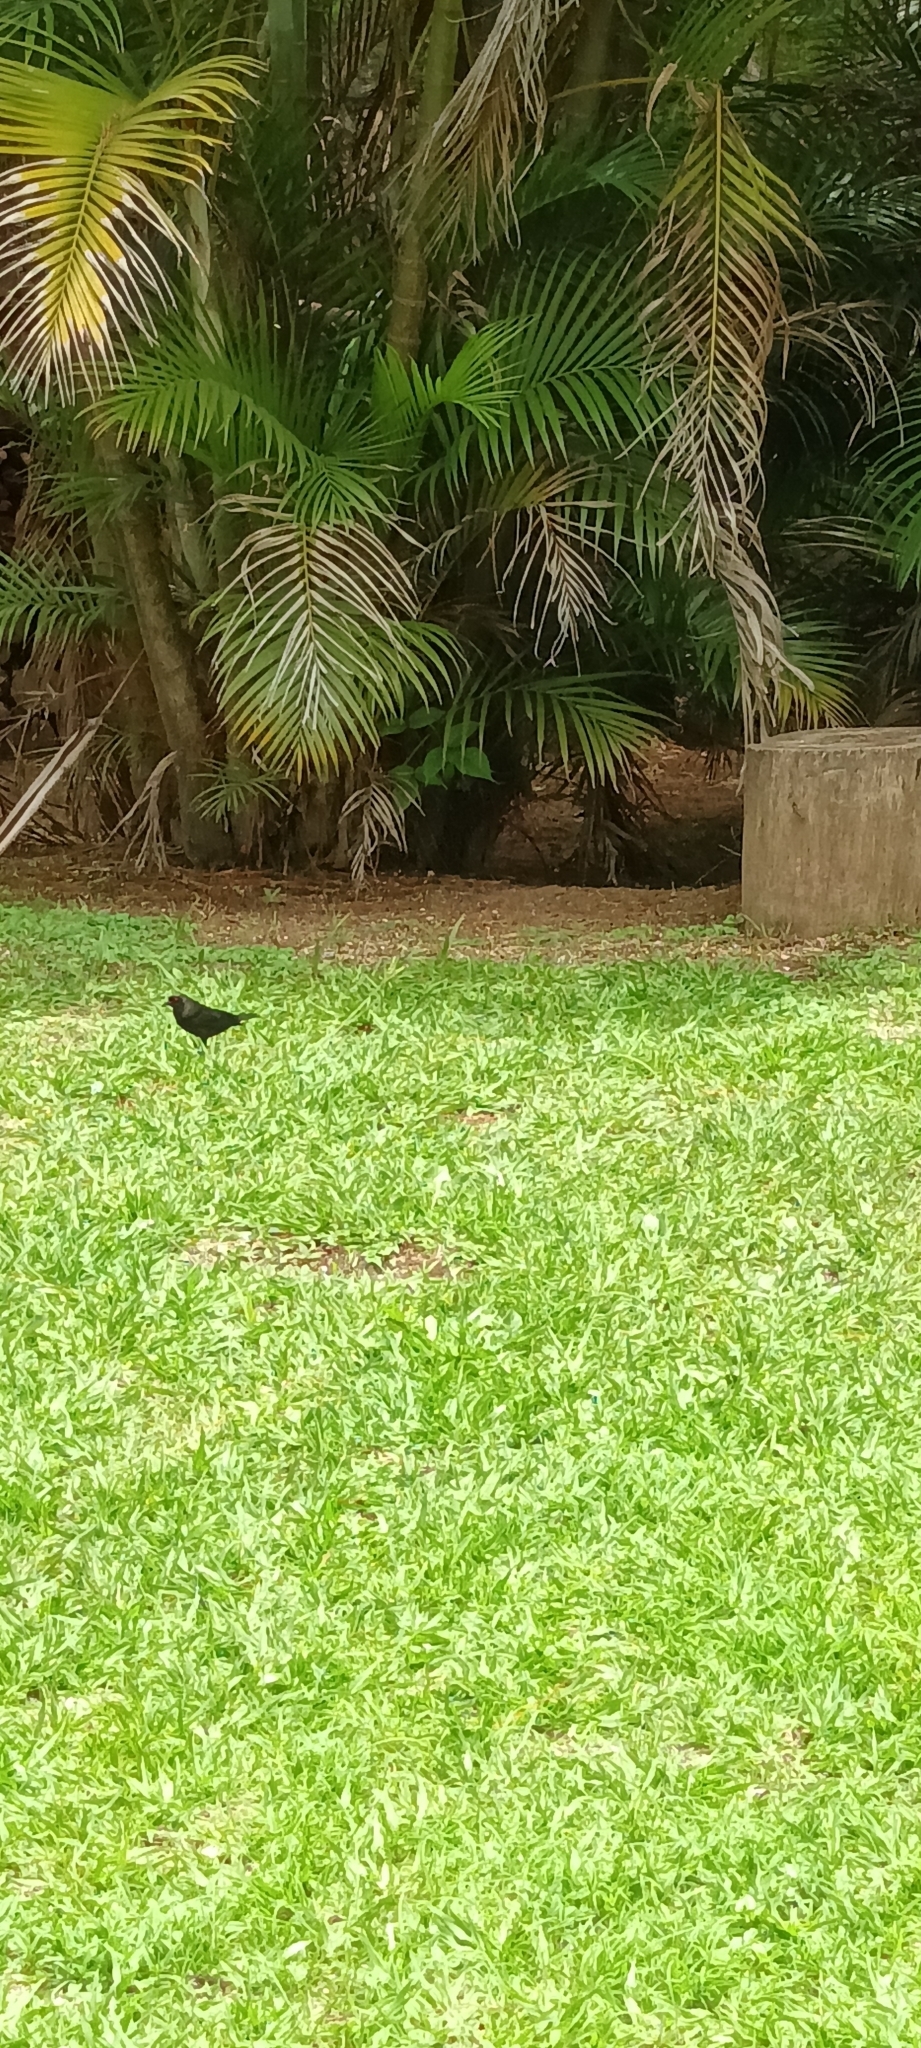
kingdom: Animalia
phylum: Chordata
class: Aves
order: Passeriformes
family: Icteridae
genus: Molothrus
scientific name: Molothrus aeneus
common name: Bronzed cowbird
